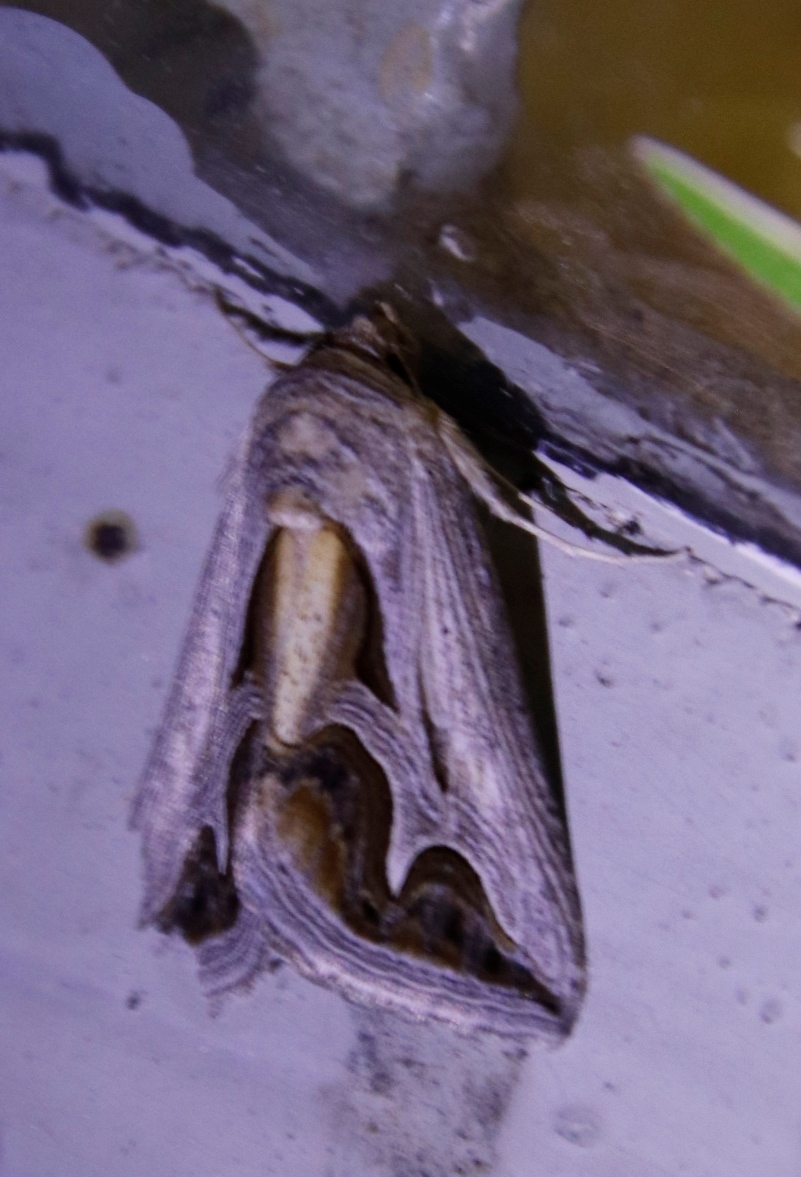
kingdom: Animalia
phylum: Arthropoda
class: Insecta
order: Lepidoptera
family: Erebidae
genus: Cuneisigna
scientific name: Cuneisigna rivulata
